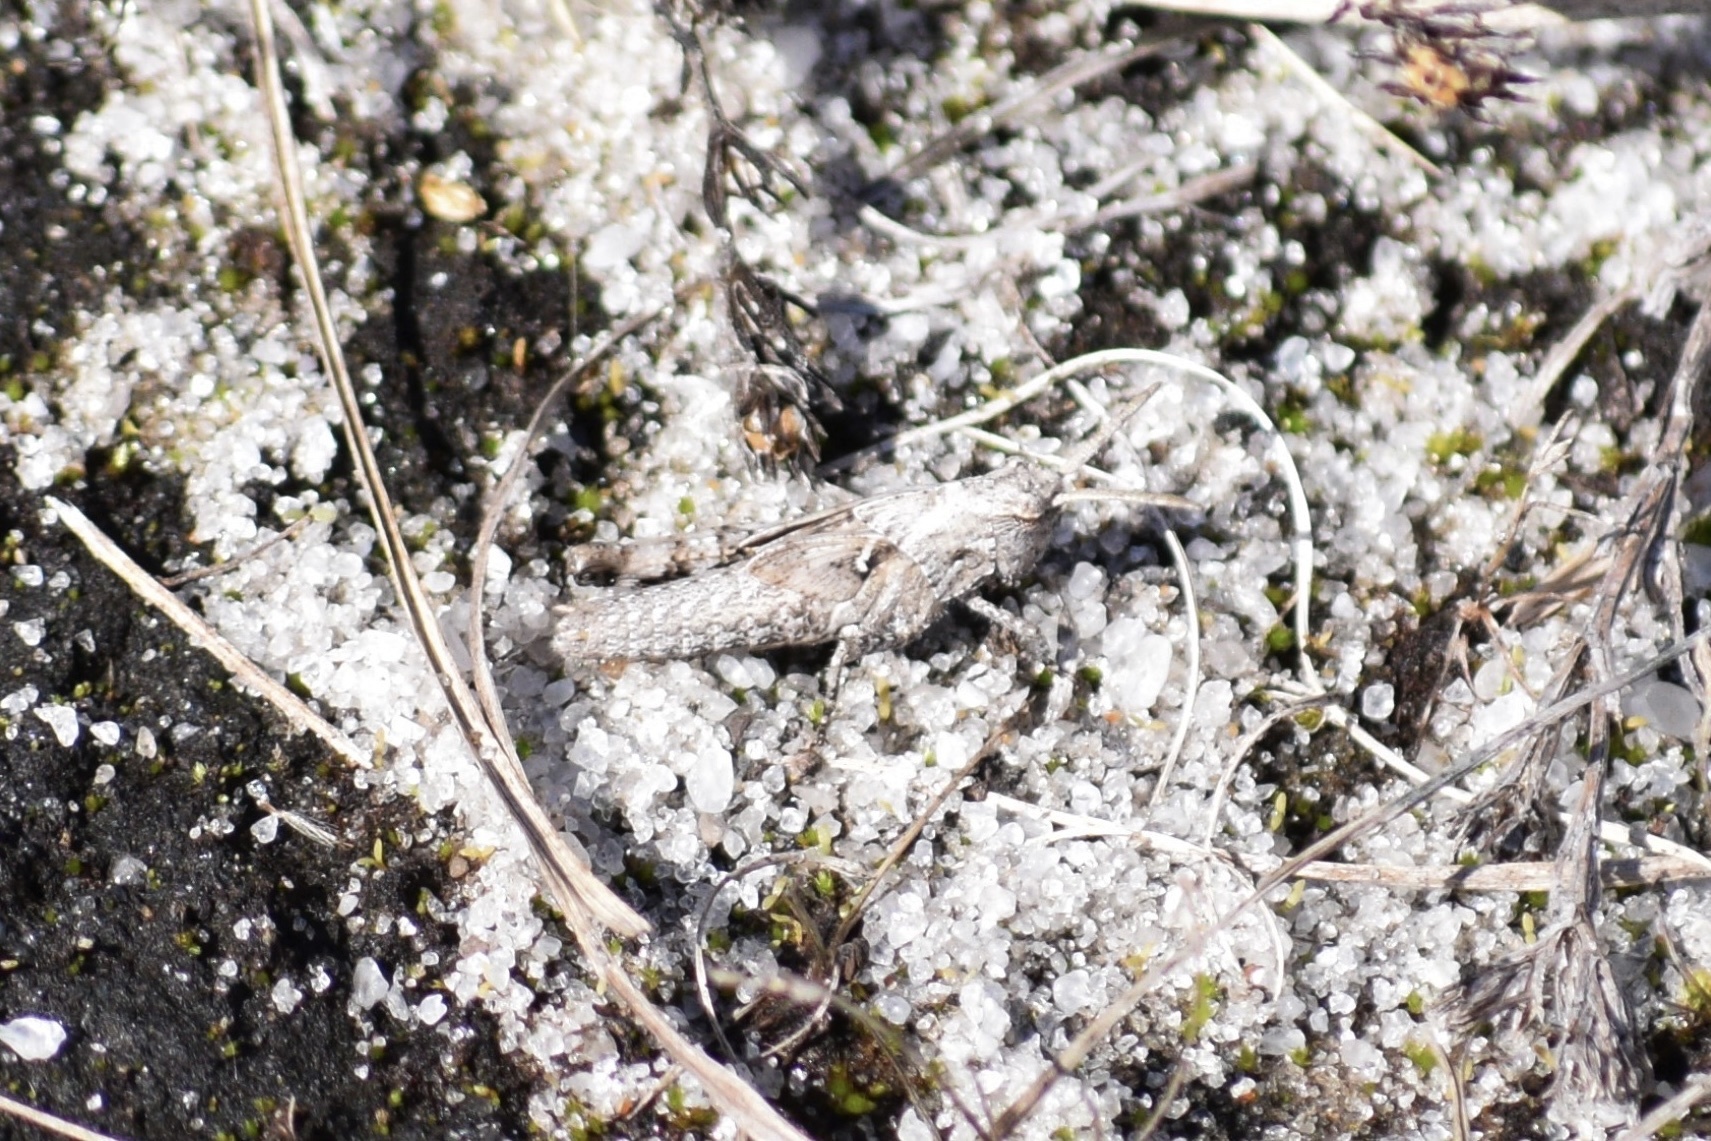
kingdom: Animalia
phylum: Arthropoda
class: Insecta
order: Orthoptera
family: Acrididae
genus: Chortophaga
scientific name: Chortophaga australior
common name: Southern green-striped grasshopper
